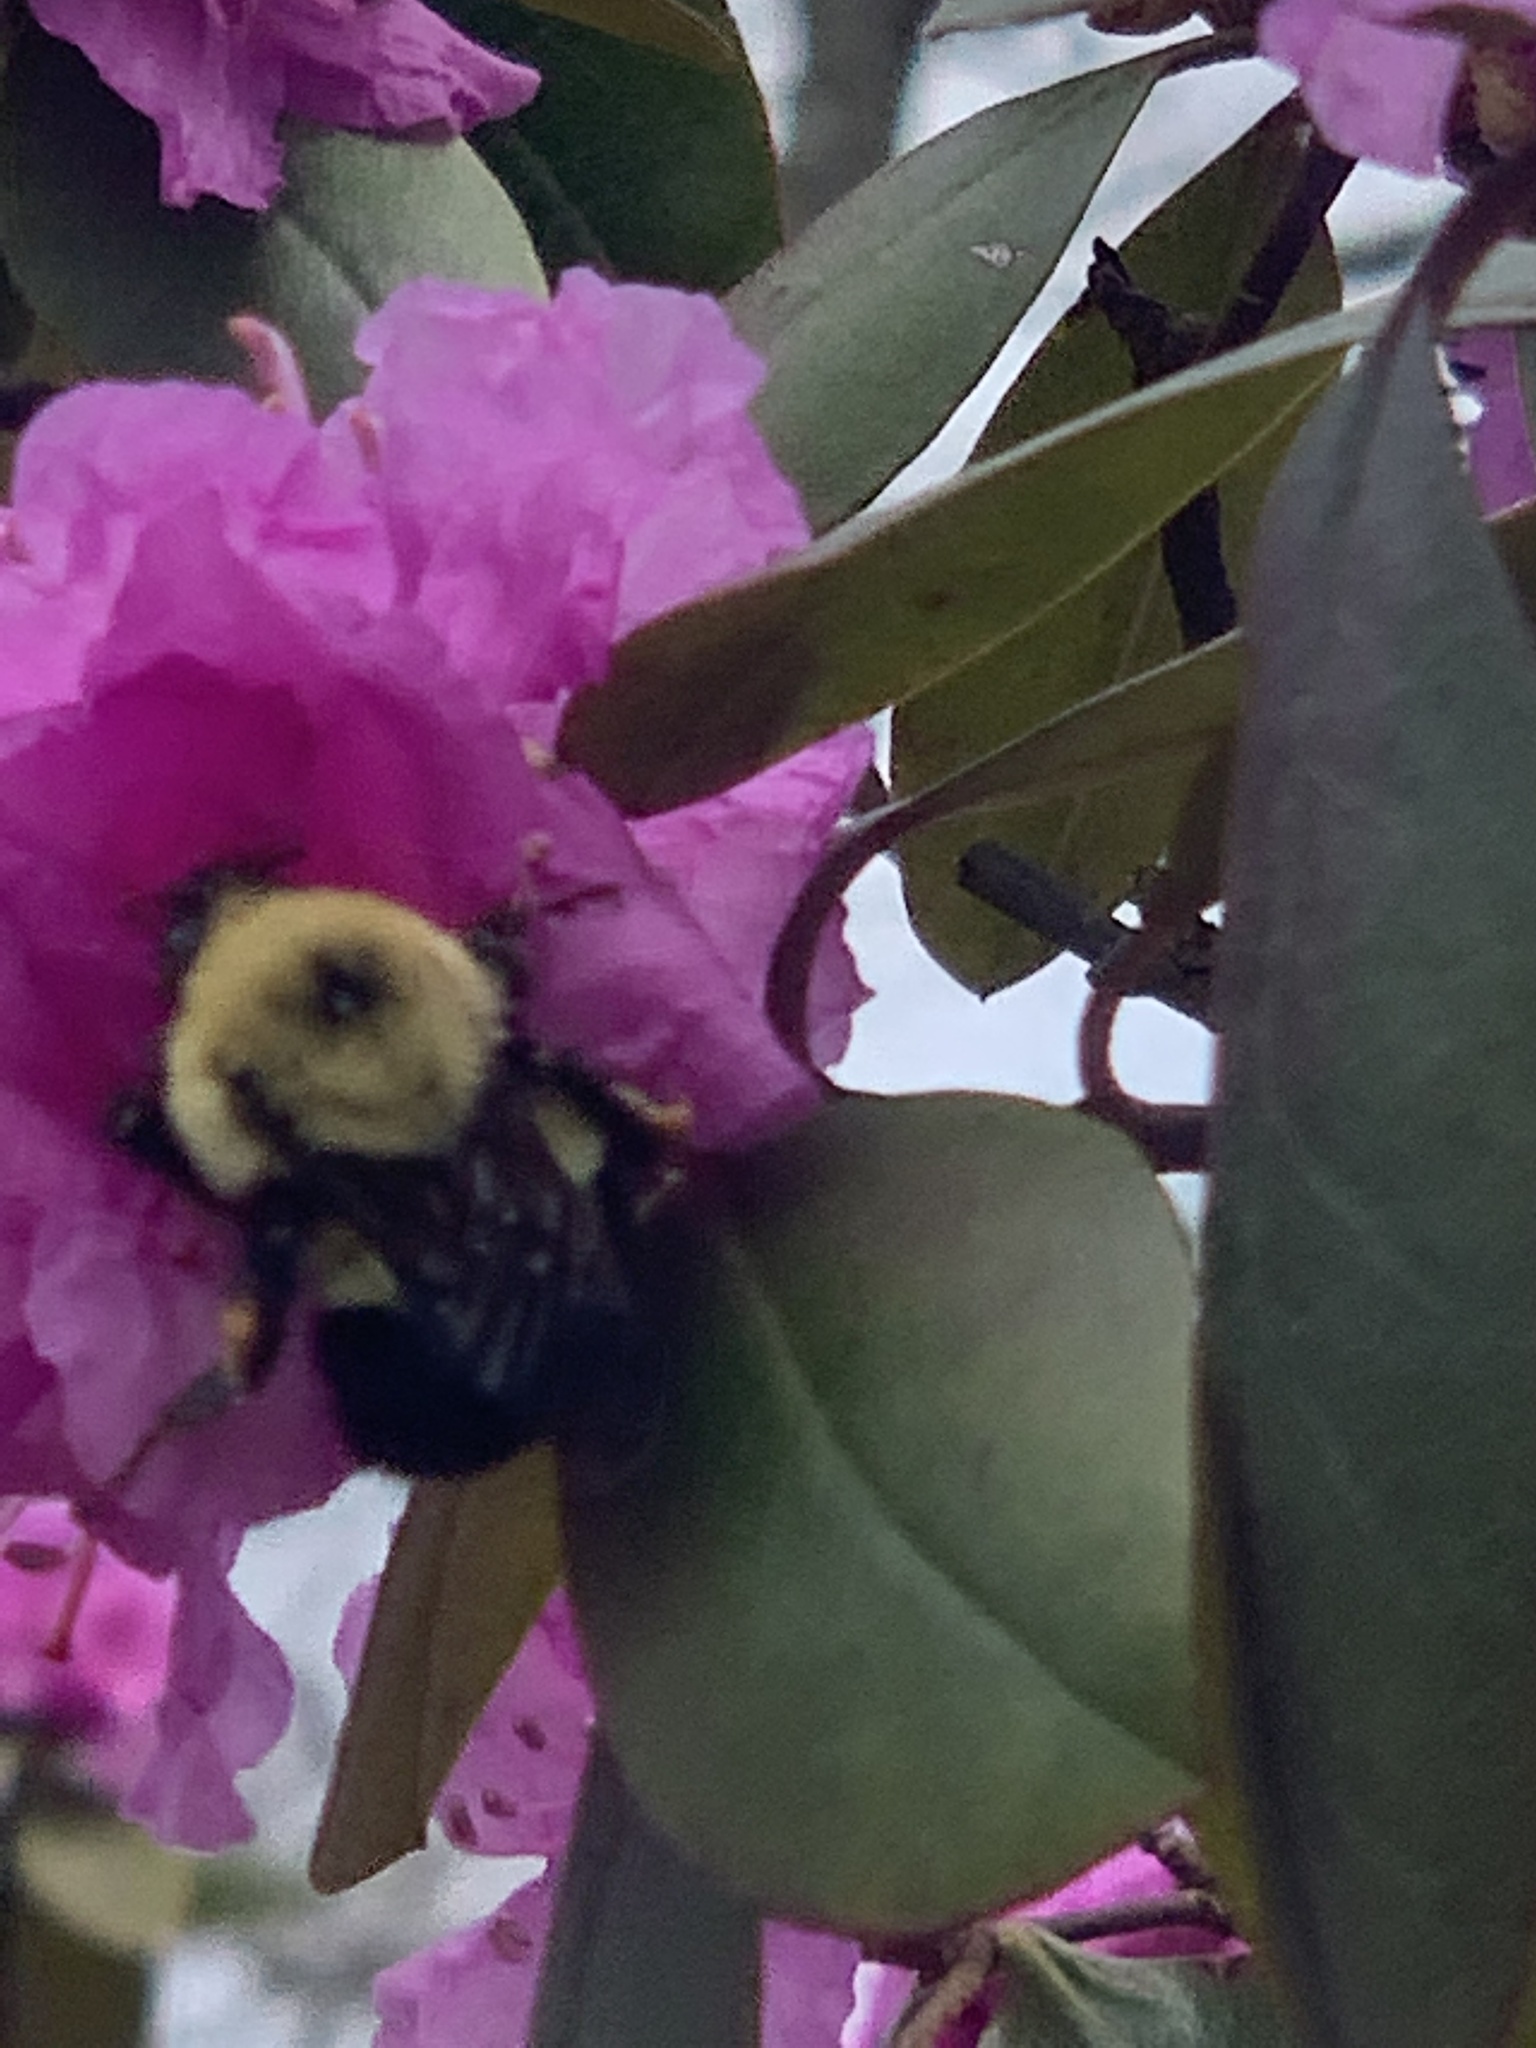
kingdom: Animalia
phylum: Arthropoda
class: Insecta
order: Hymenoptera
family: Apidae
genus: Bombus
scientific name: Bombus bimaculatus
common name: Two-spotted bumble bee
